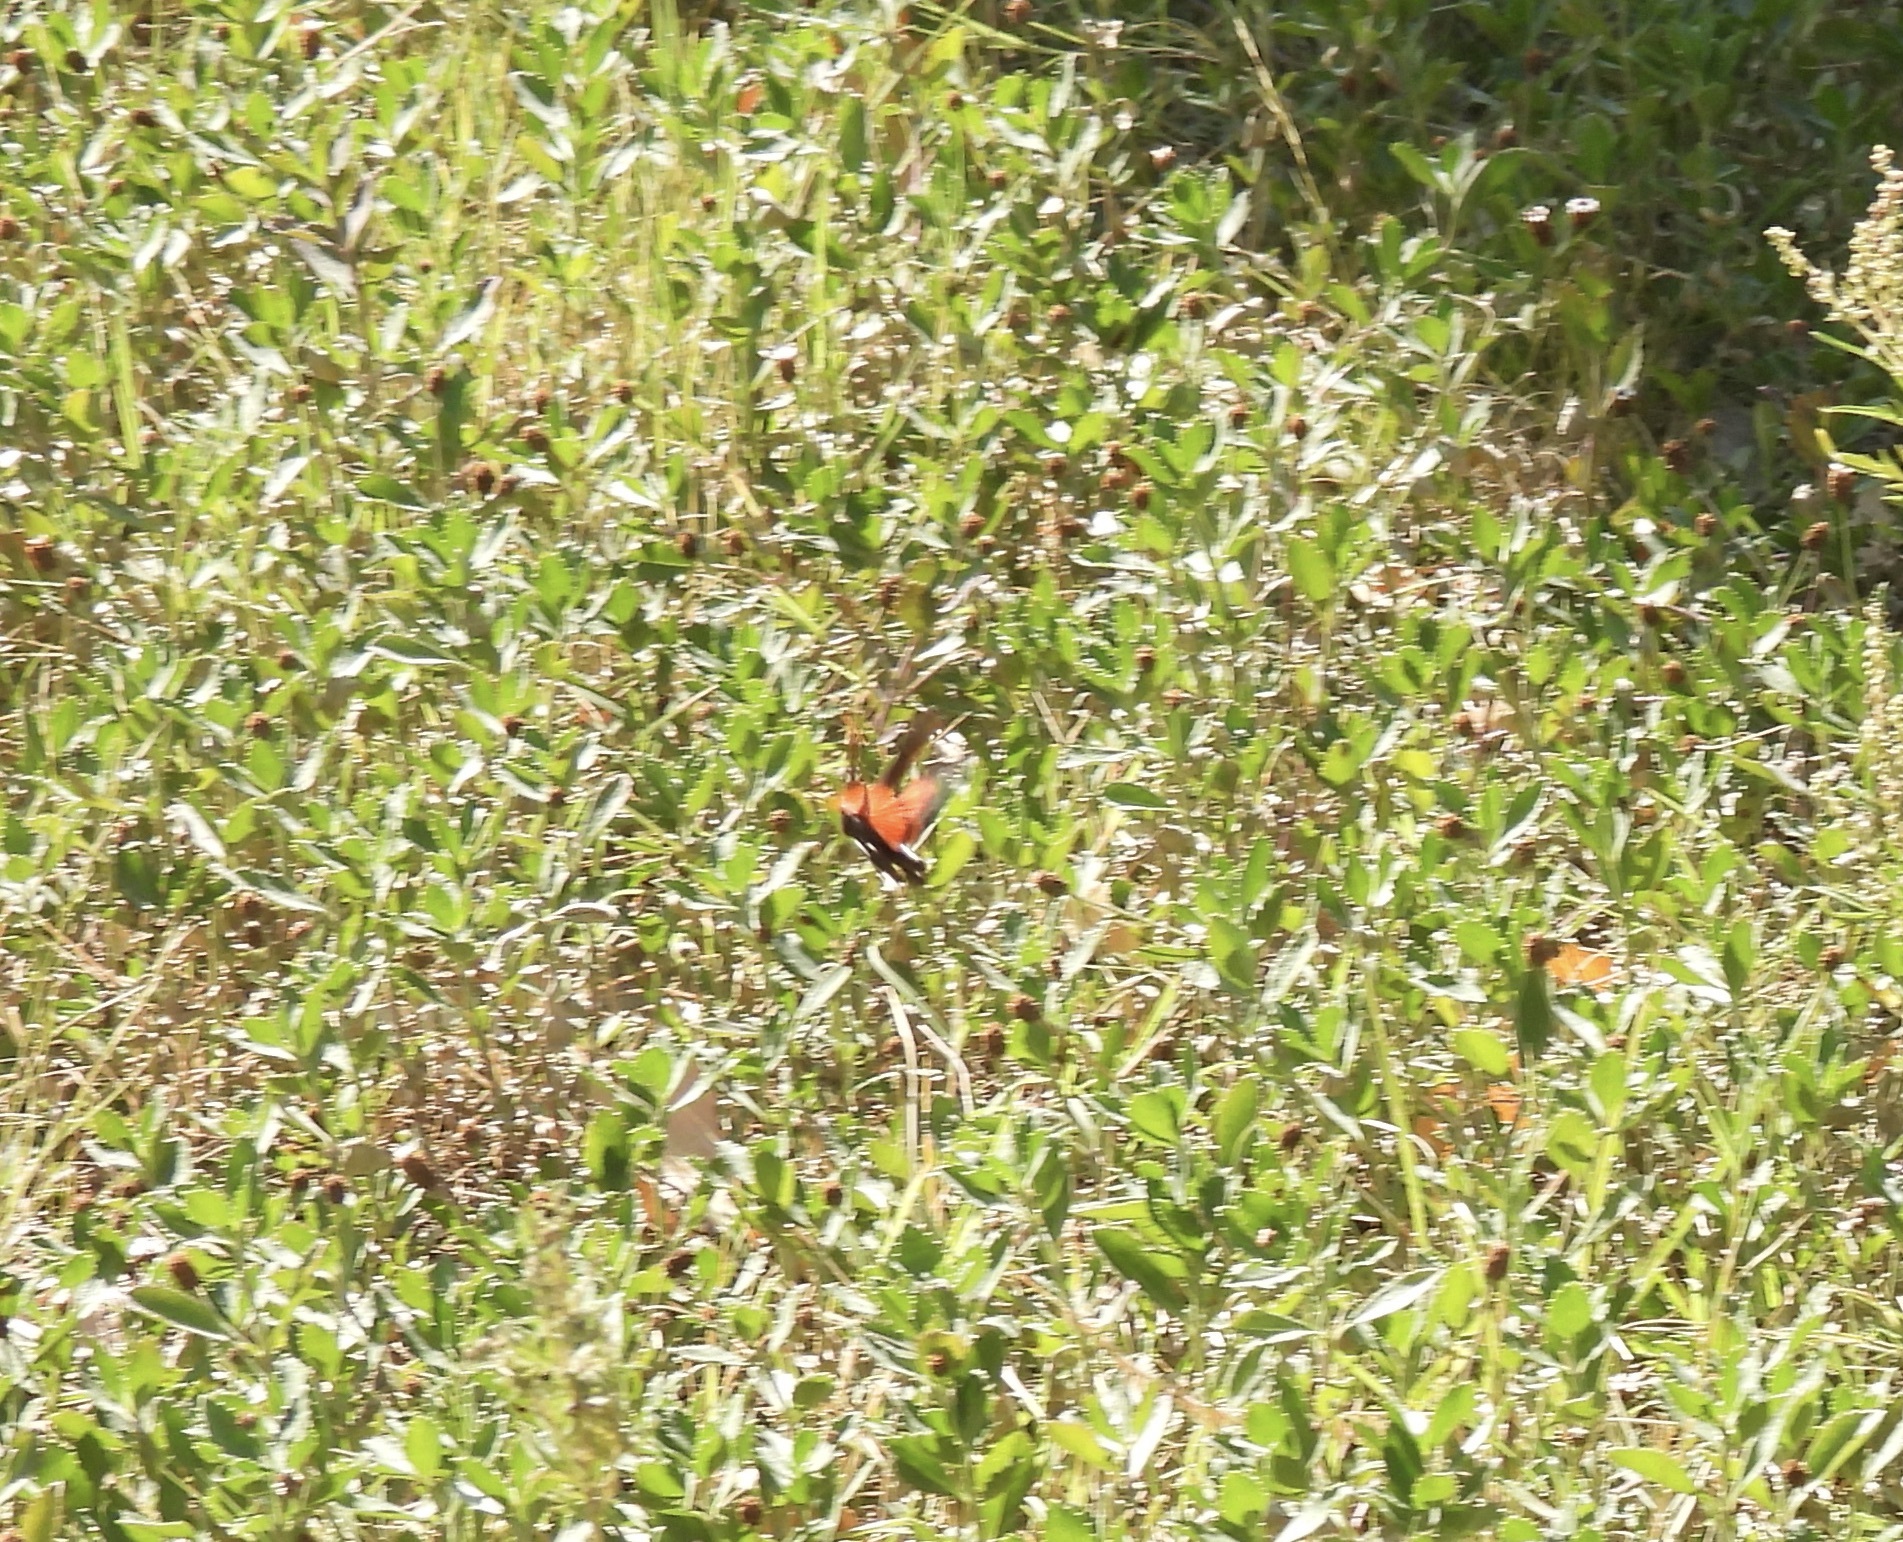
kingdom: Animalia
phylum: Arthropoda
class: Insecta
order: Orthoptera
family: Acrididae
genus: Arphia
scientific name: Arphia pseudo-nietana
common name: Red-winged grasshopper
